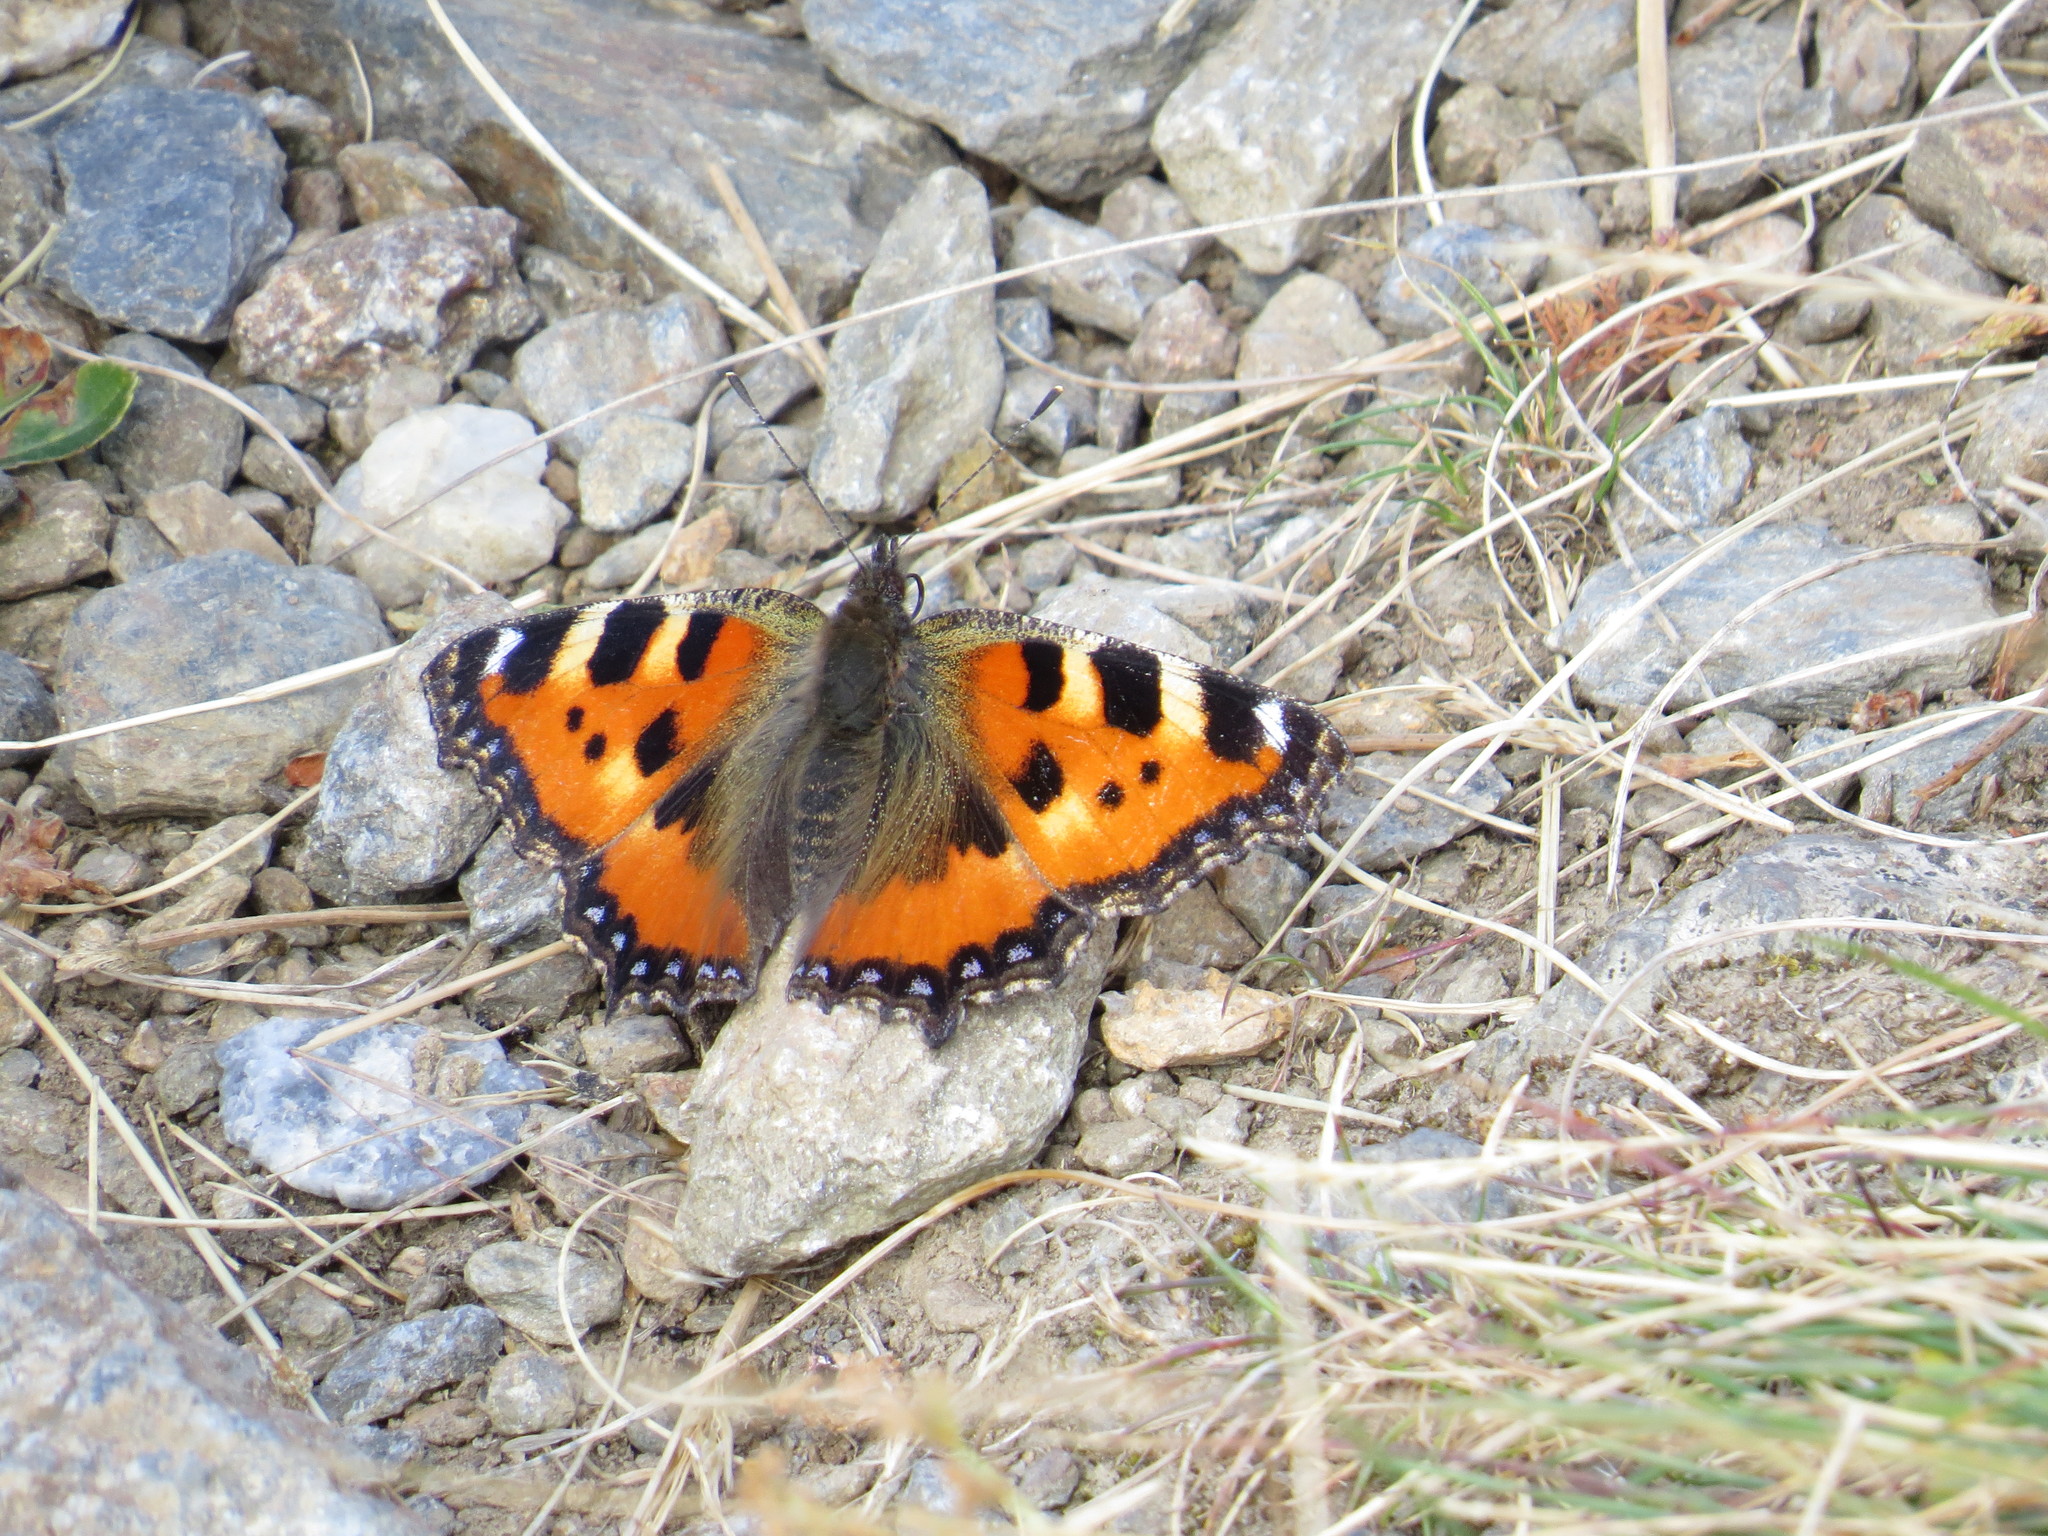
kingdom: Animalia
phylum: Arthropoda
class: Insecta
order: Lepidoptera
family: Nymphalidae
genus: Aglais
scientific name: Aglais urticae
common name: Small tortoiseshell
